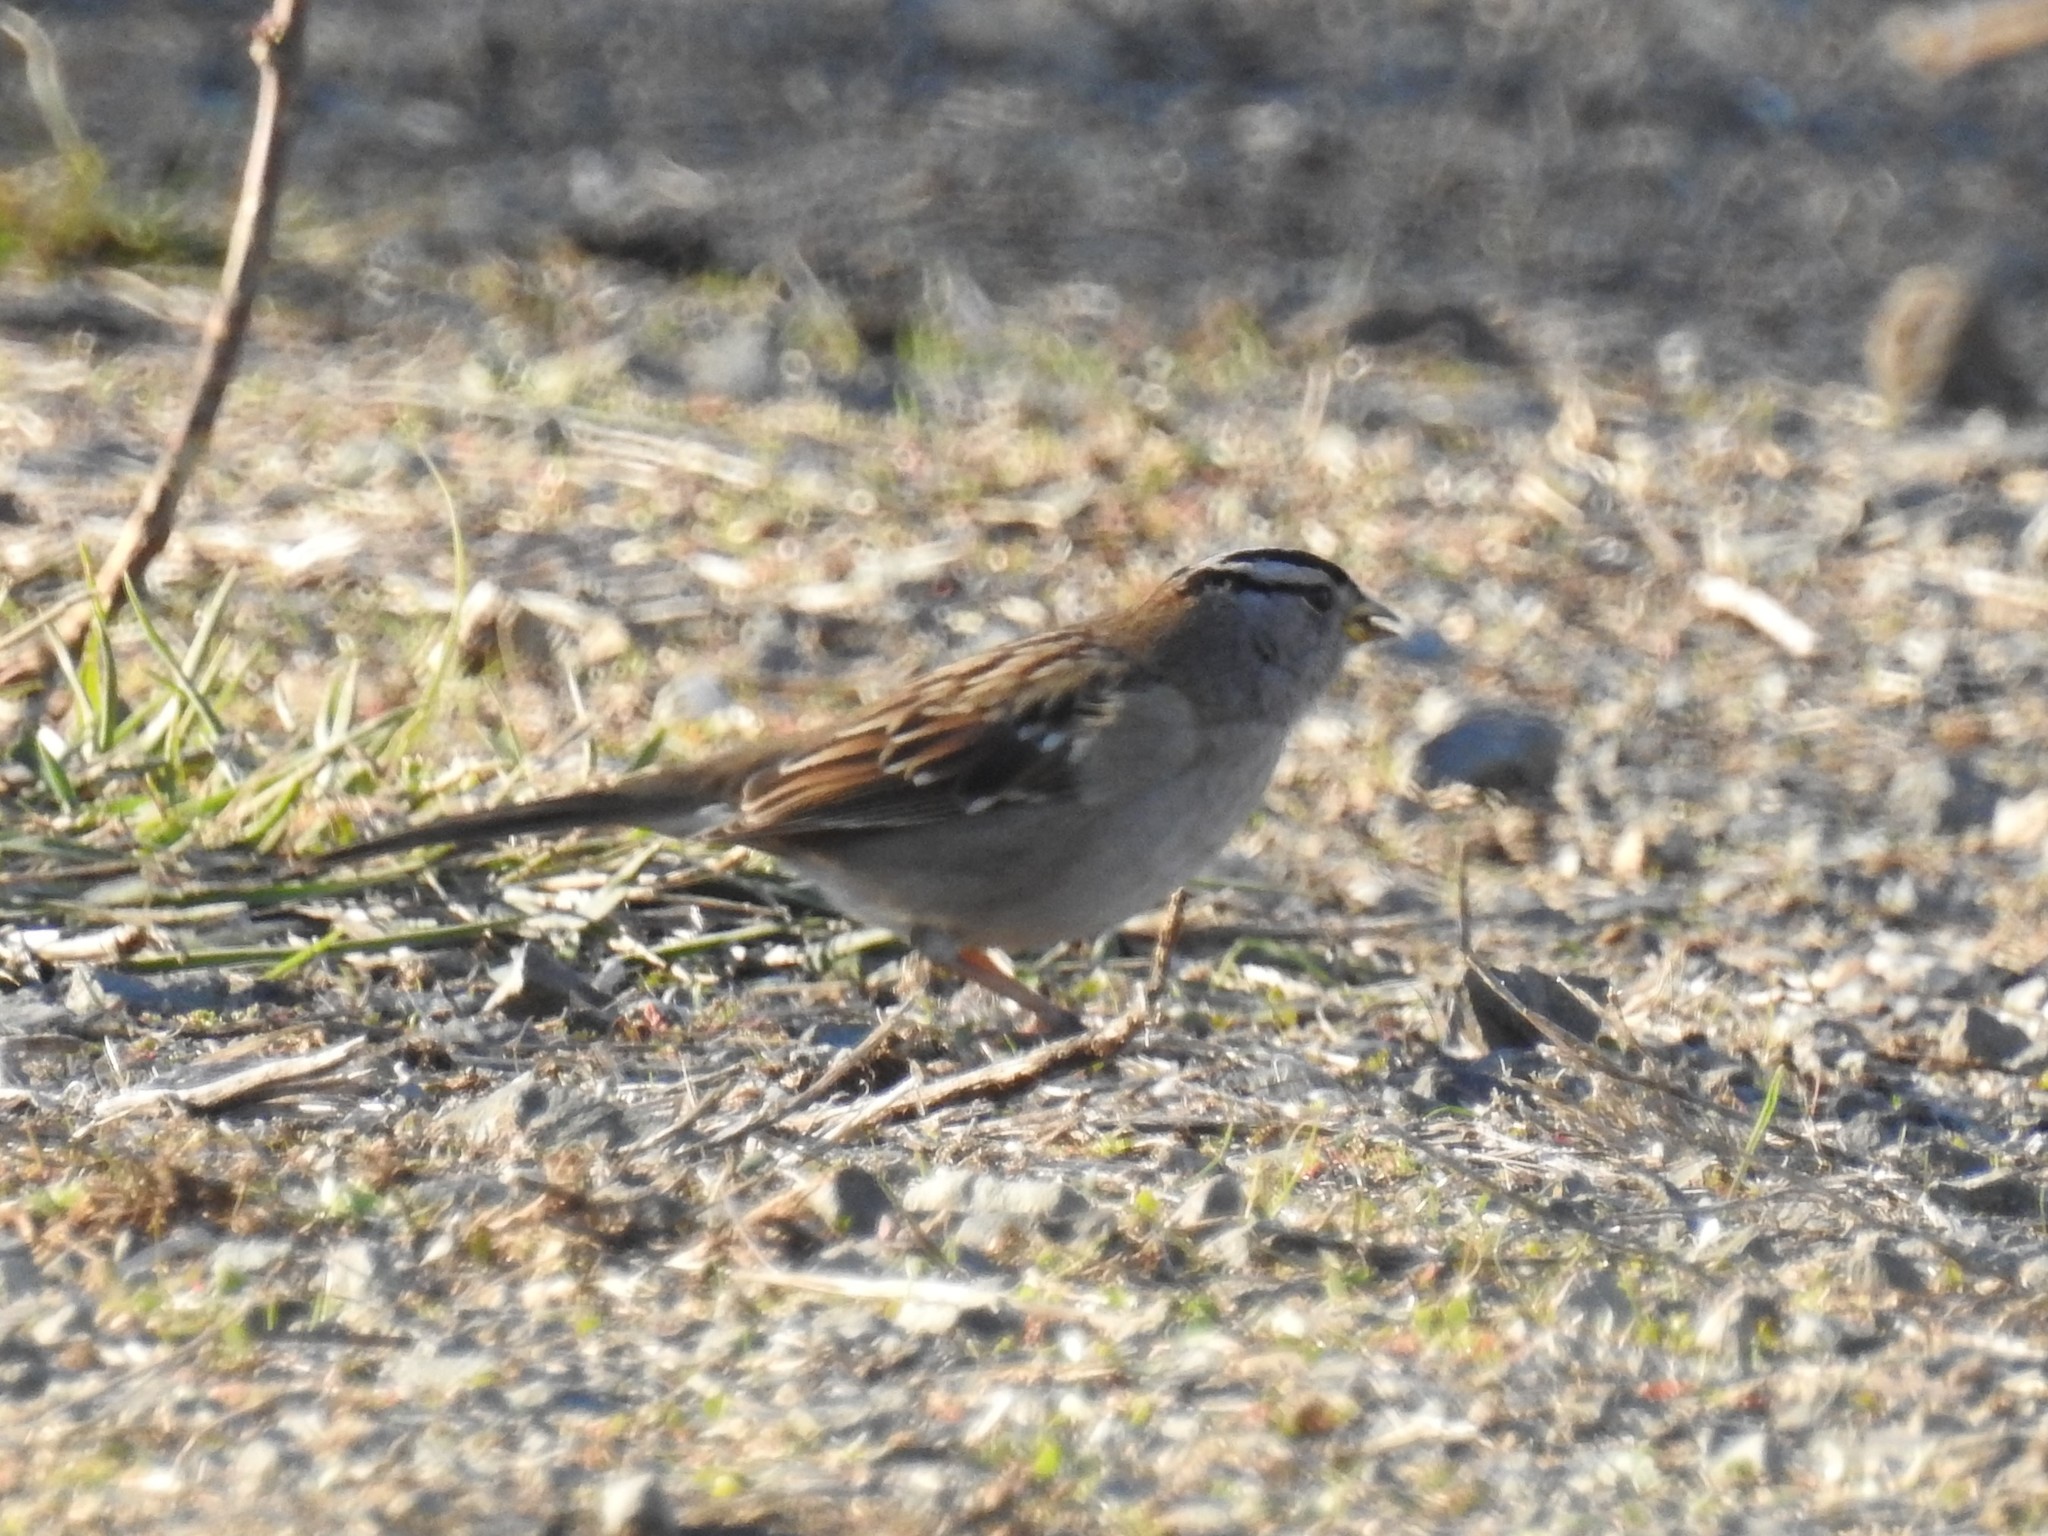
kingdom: Animalia
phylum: Chordata
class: Aves
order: Passeriformes
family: Passerellidae
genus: Zonotrichia
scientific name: Zonotrichia leucophrys
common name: White-crowned sparrow
